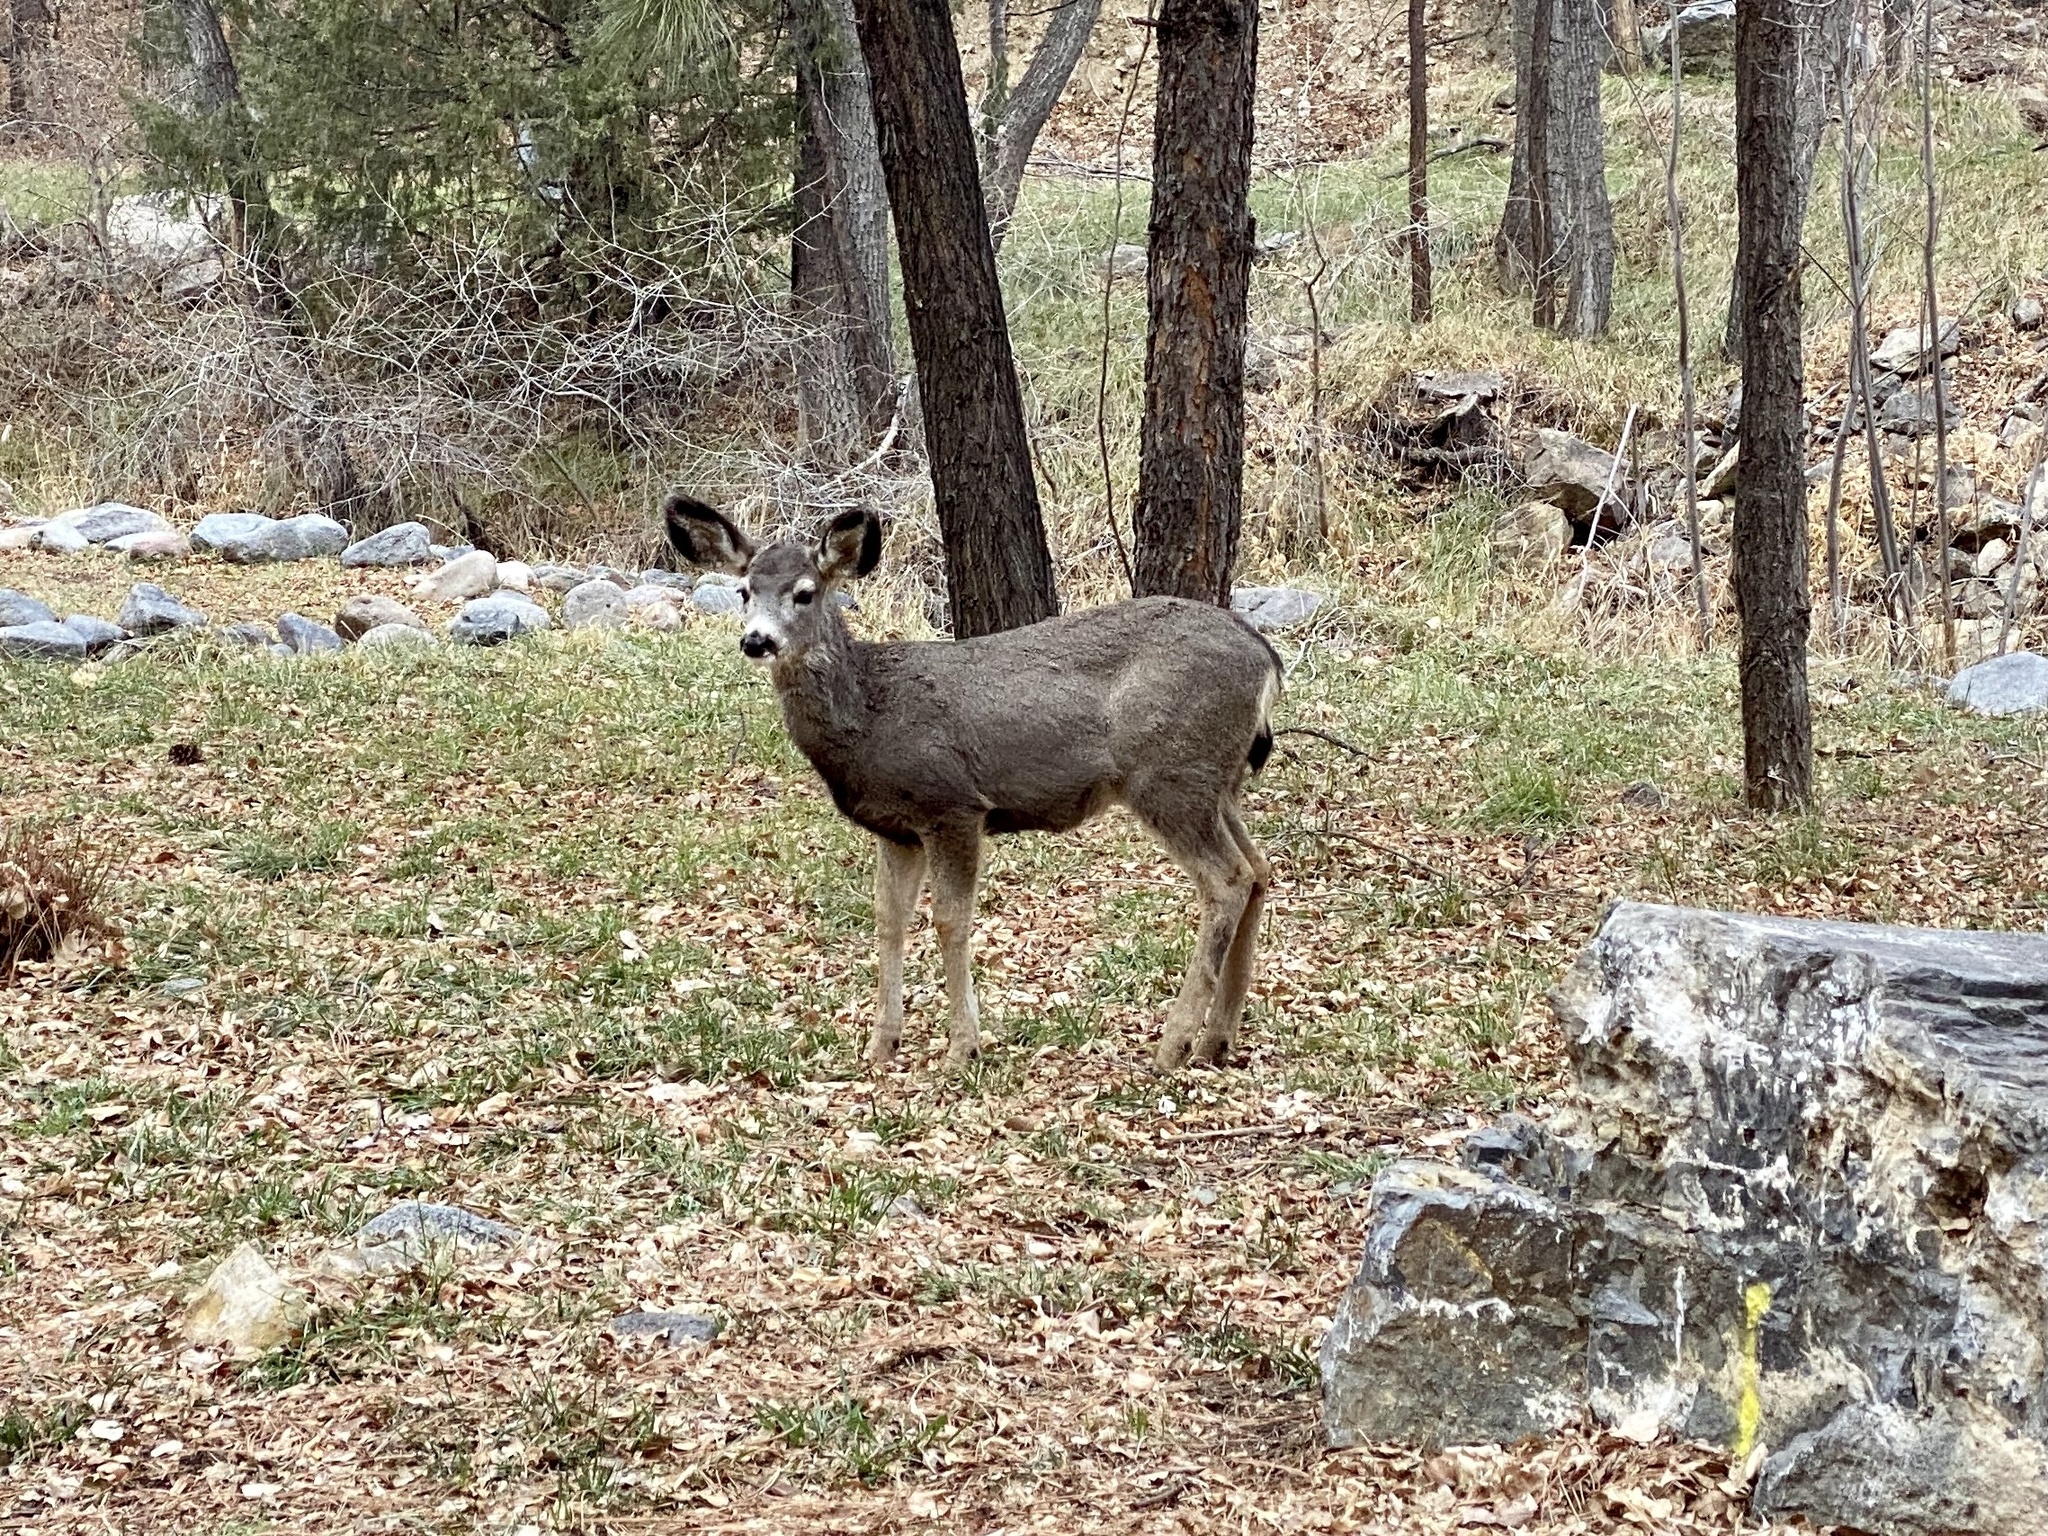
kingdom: Animalia
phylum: Chordata
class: Mammalia
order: Artiodactyla
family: Cervidae
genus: Odocoileus
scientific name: Odocoileus hemionus
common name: Mule deer
